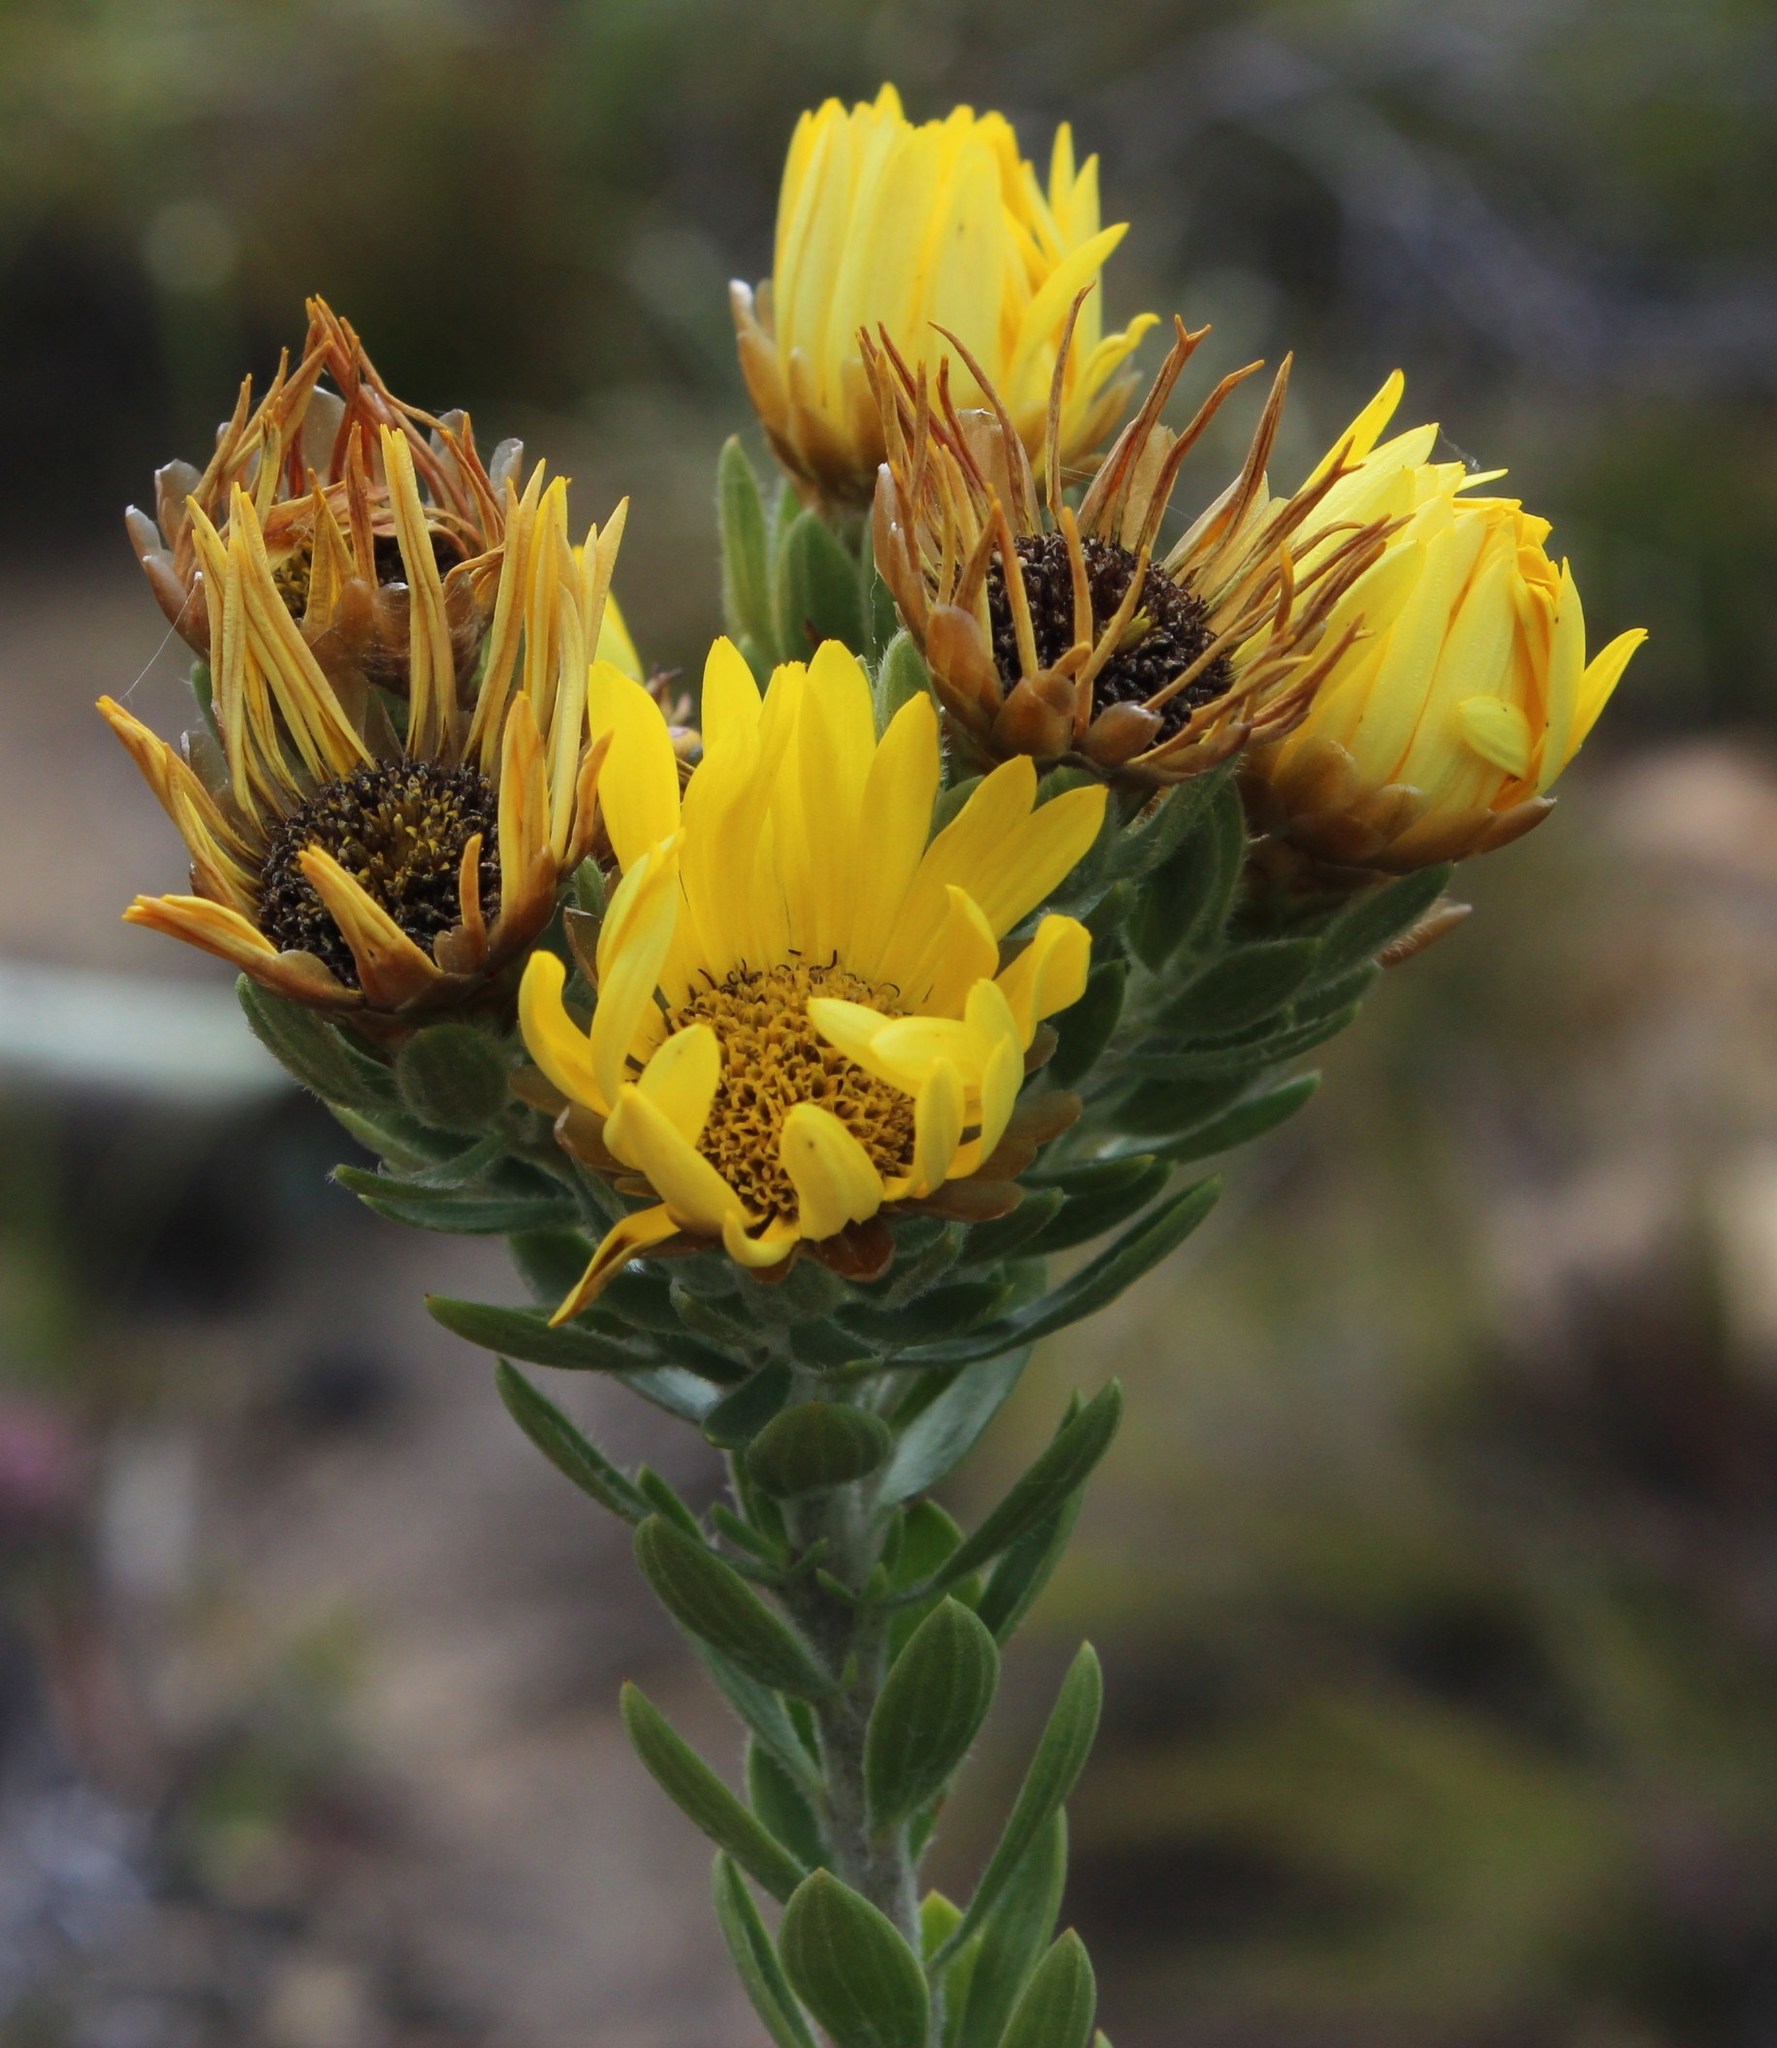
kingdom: Plantae
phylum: Tracheophyta
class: Magnoliopsida
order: Asterales
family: Asteraceae
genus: Oedera
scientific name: Oedera calycina
